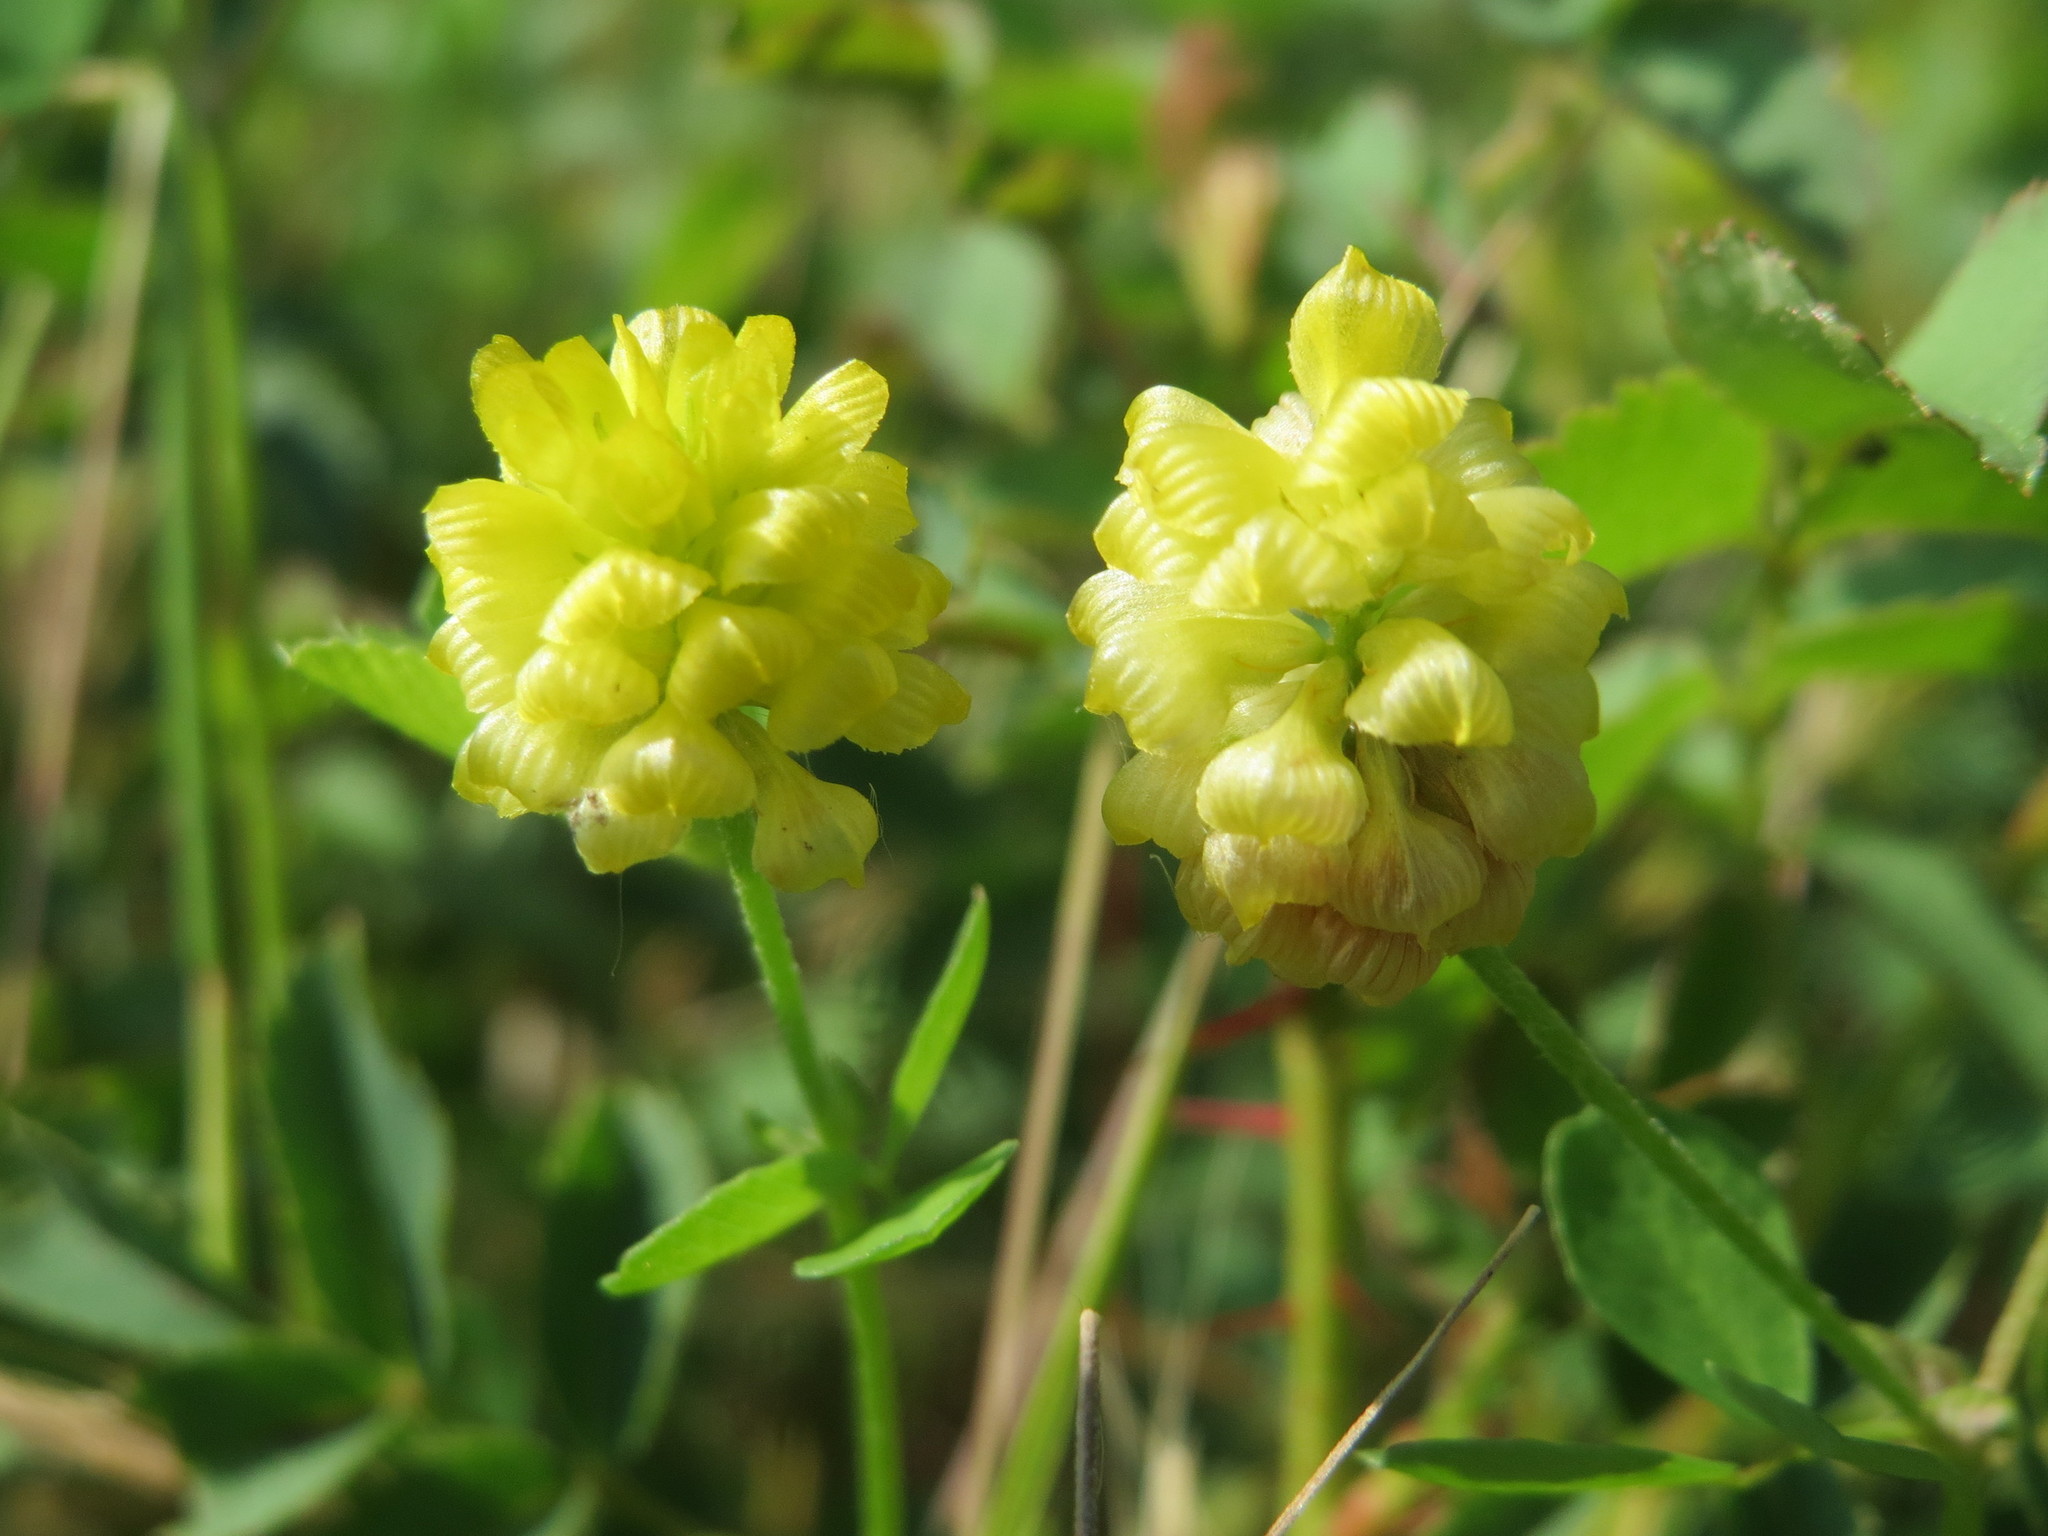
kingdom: Plantae
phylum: Tracheophyta
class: Magnoliopsida
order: Fabales
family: Fabaceae
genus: Trifolium
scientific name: Trifolium campestre
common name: Field clover
